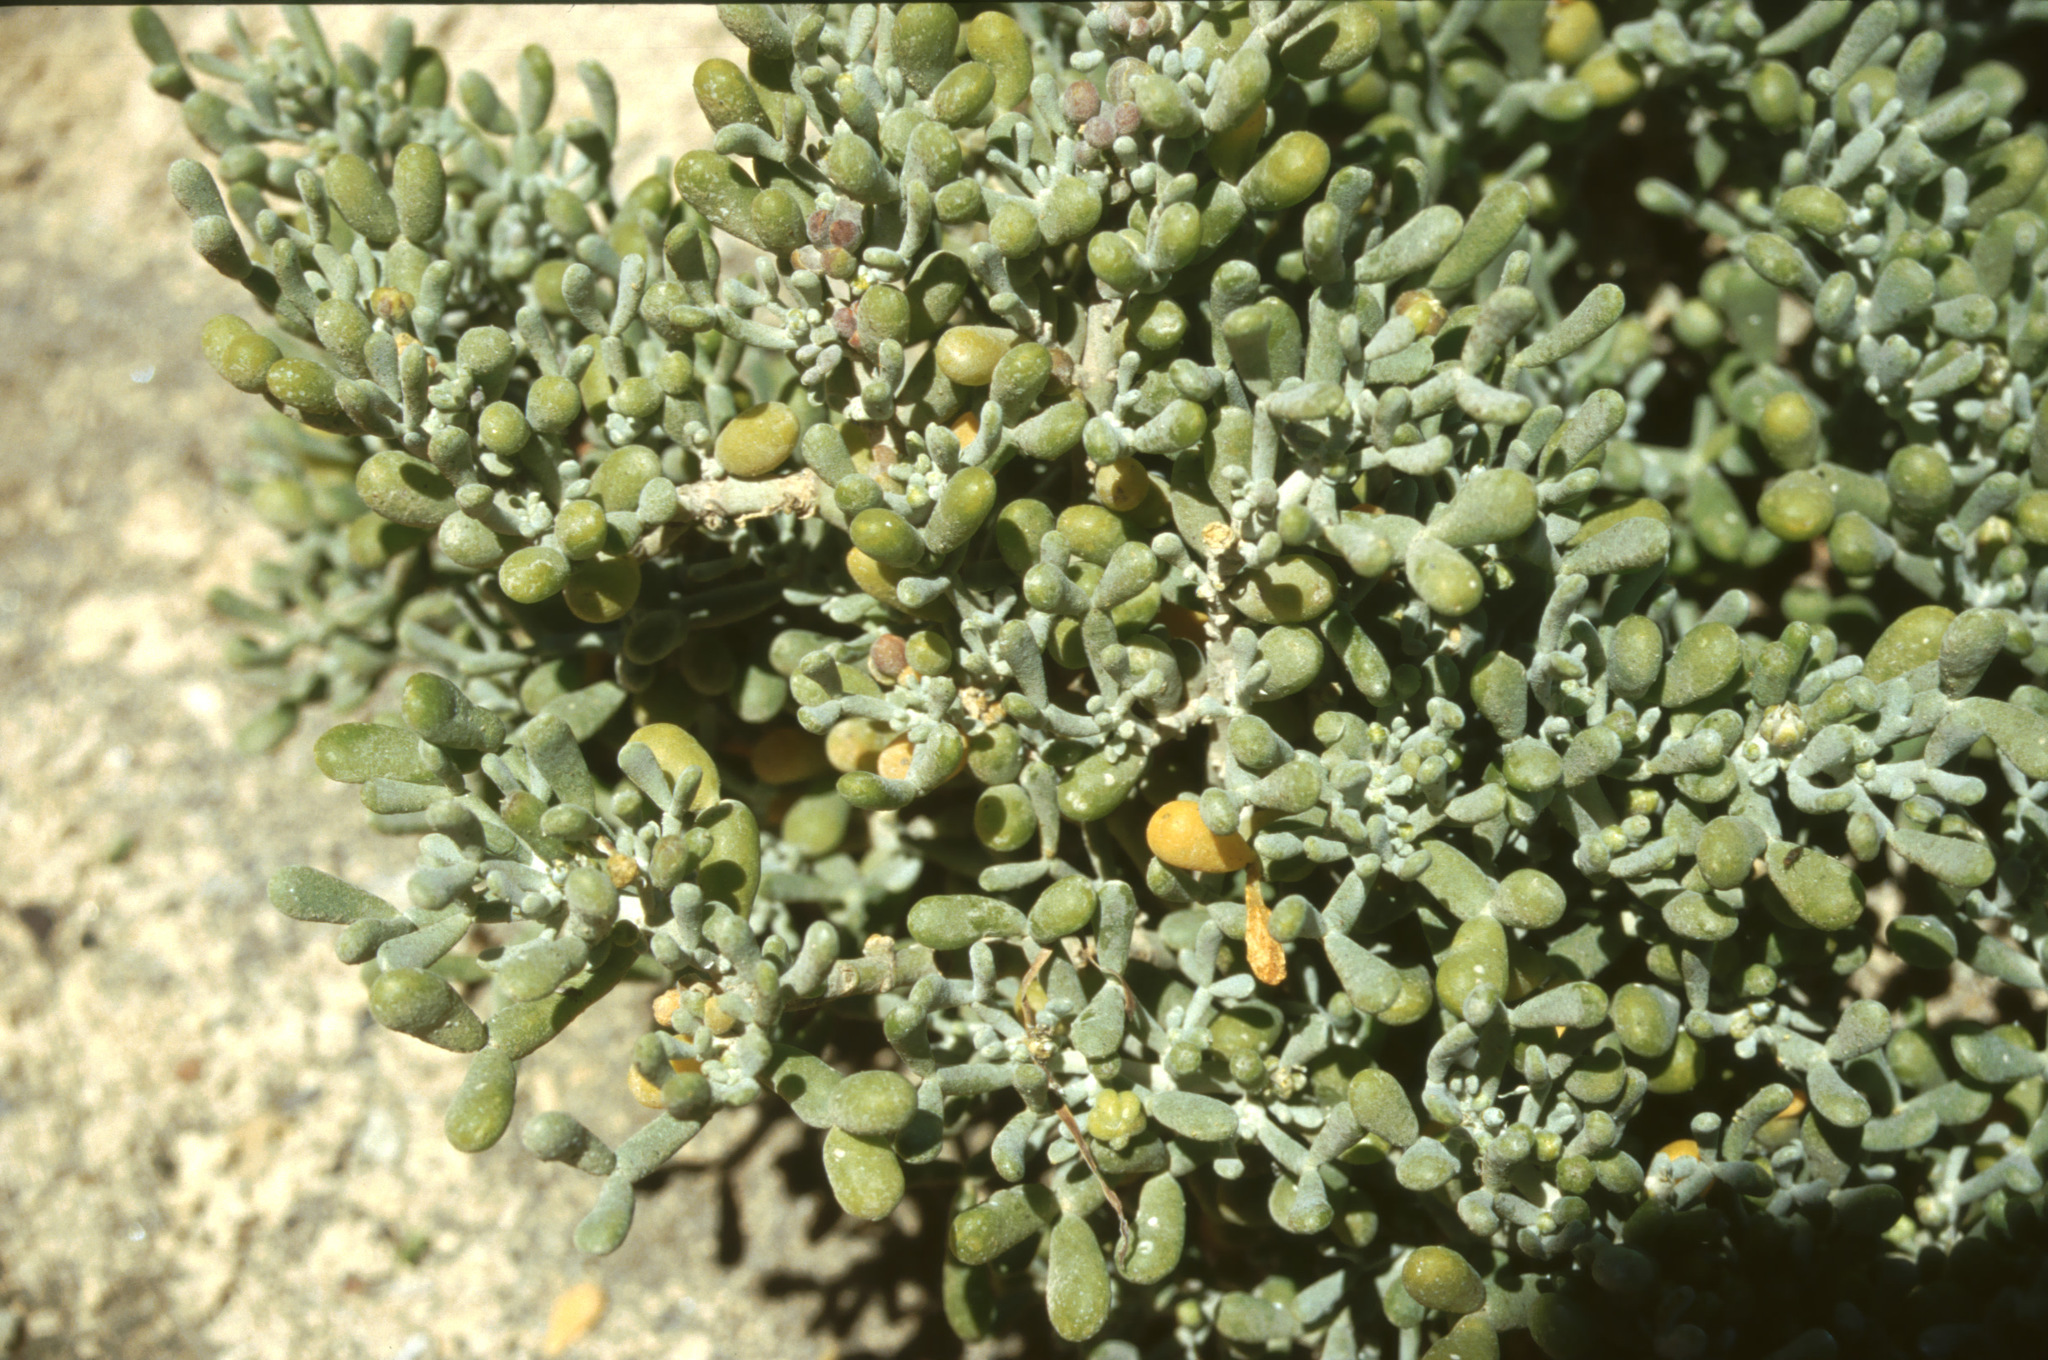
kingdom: Plantae
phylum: Tracheophyta
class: Magnoliopsida
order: Zygophyllales
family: Zygophyllaceae
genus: Tetraena
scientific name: Tetraena fontanesii
